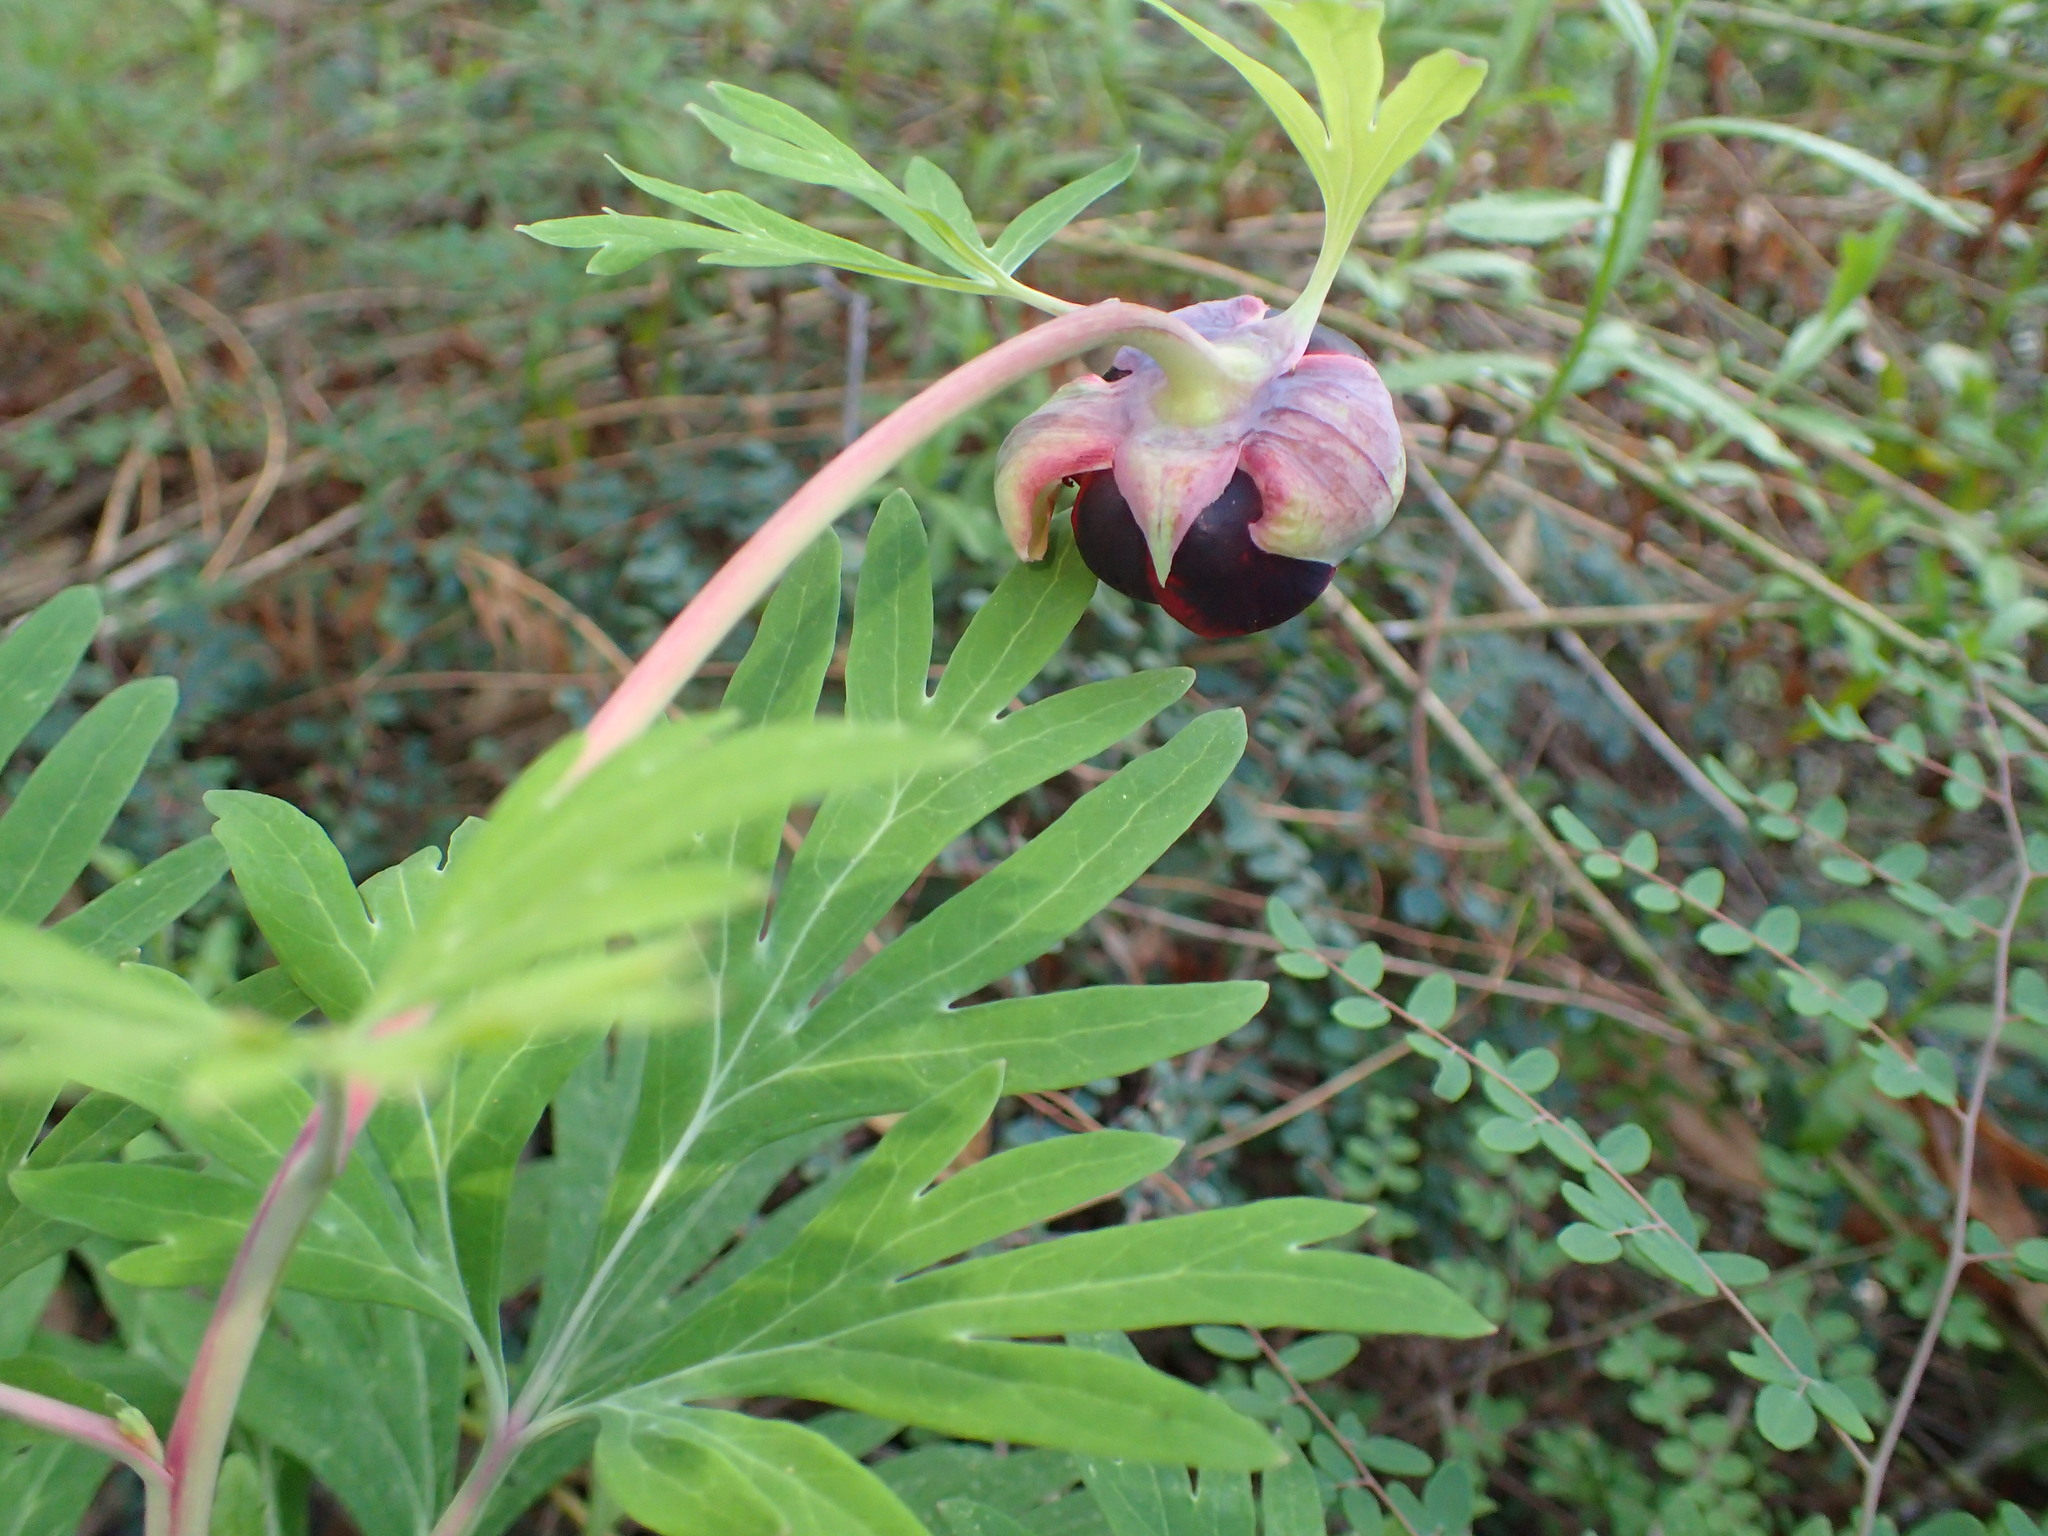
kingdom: Plantae
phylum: Tracheophyta
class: Magnoliopsida
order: Saxifragales
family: Paeoniaceae
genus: Paeonia
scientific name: Paeonia californica
